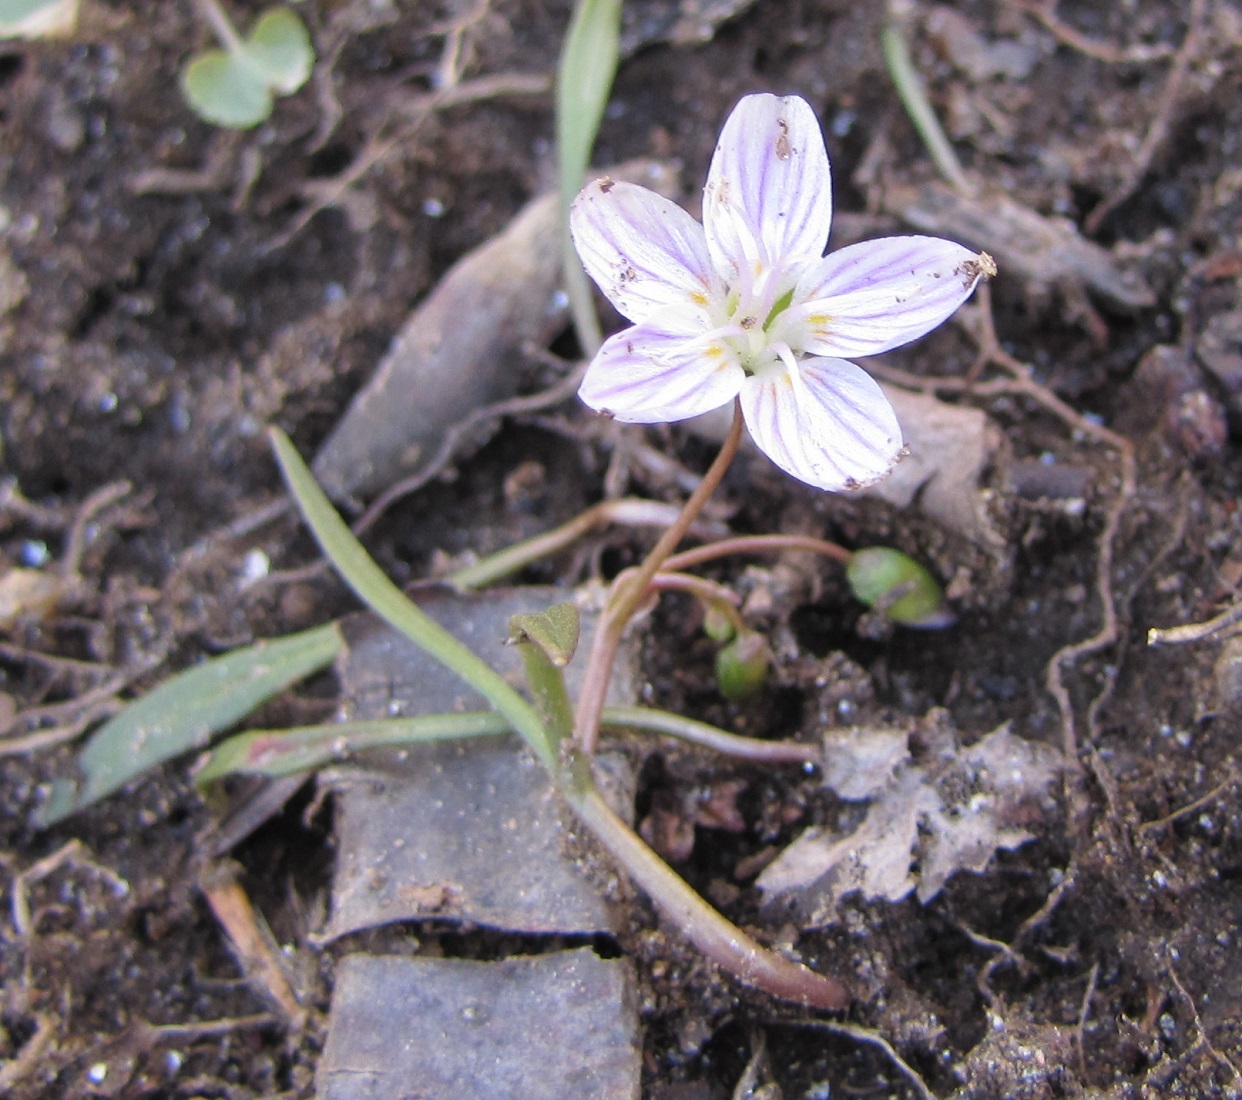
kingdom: Plantae
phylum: Tracheophyta
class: Magnoliopsida
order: Caryophyllales
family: Montiaceae
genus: Claytonia
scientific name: Claytonia virginica
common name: Virginia springbeauty
